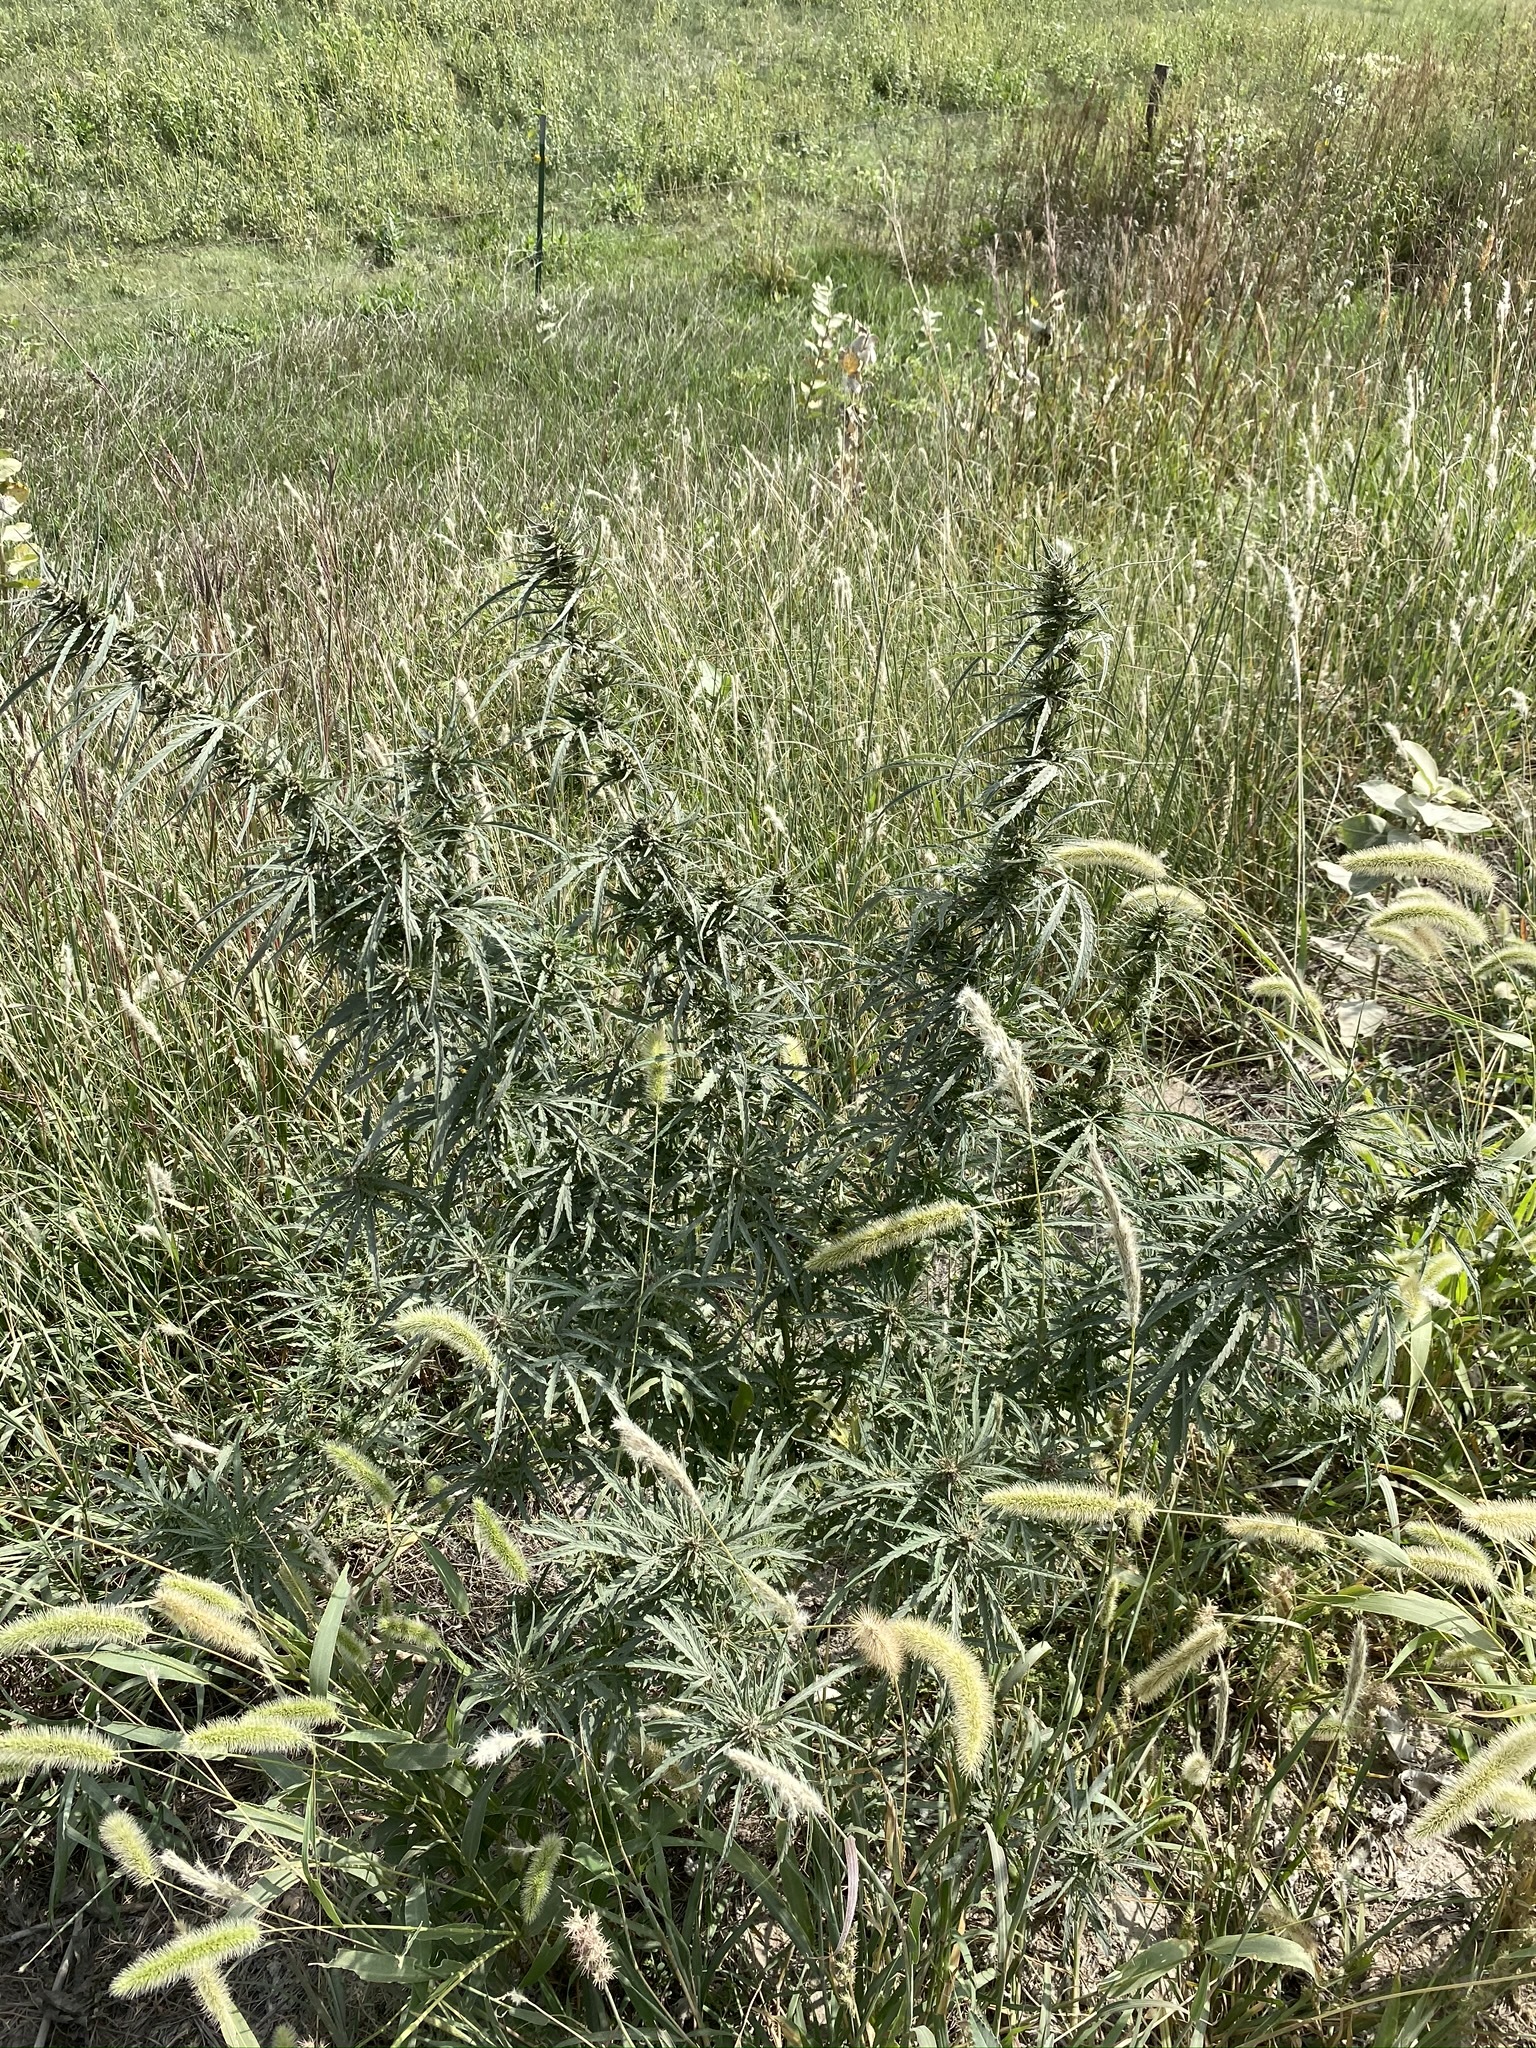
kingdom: Plantae
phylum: Tracheophyta
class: Magnoliopsida
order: Rosales
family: Cannabaceae
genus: Cannabis
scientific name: Cannabis sativa
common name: Hemp
